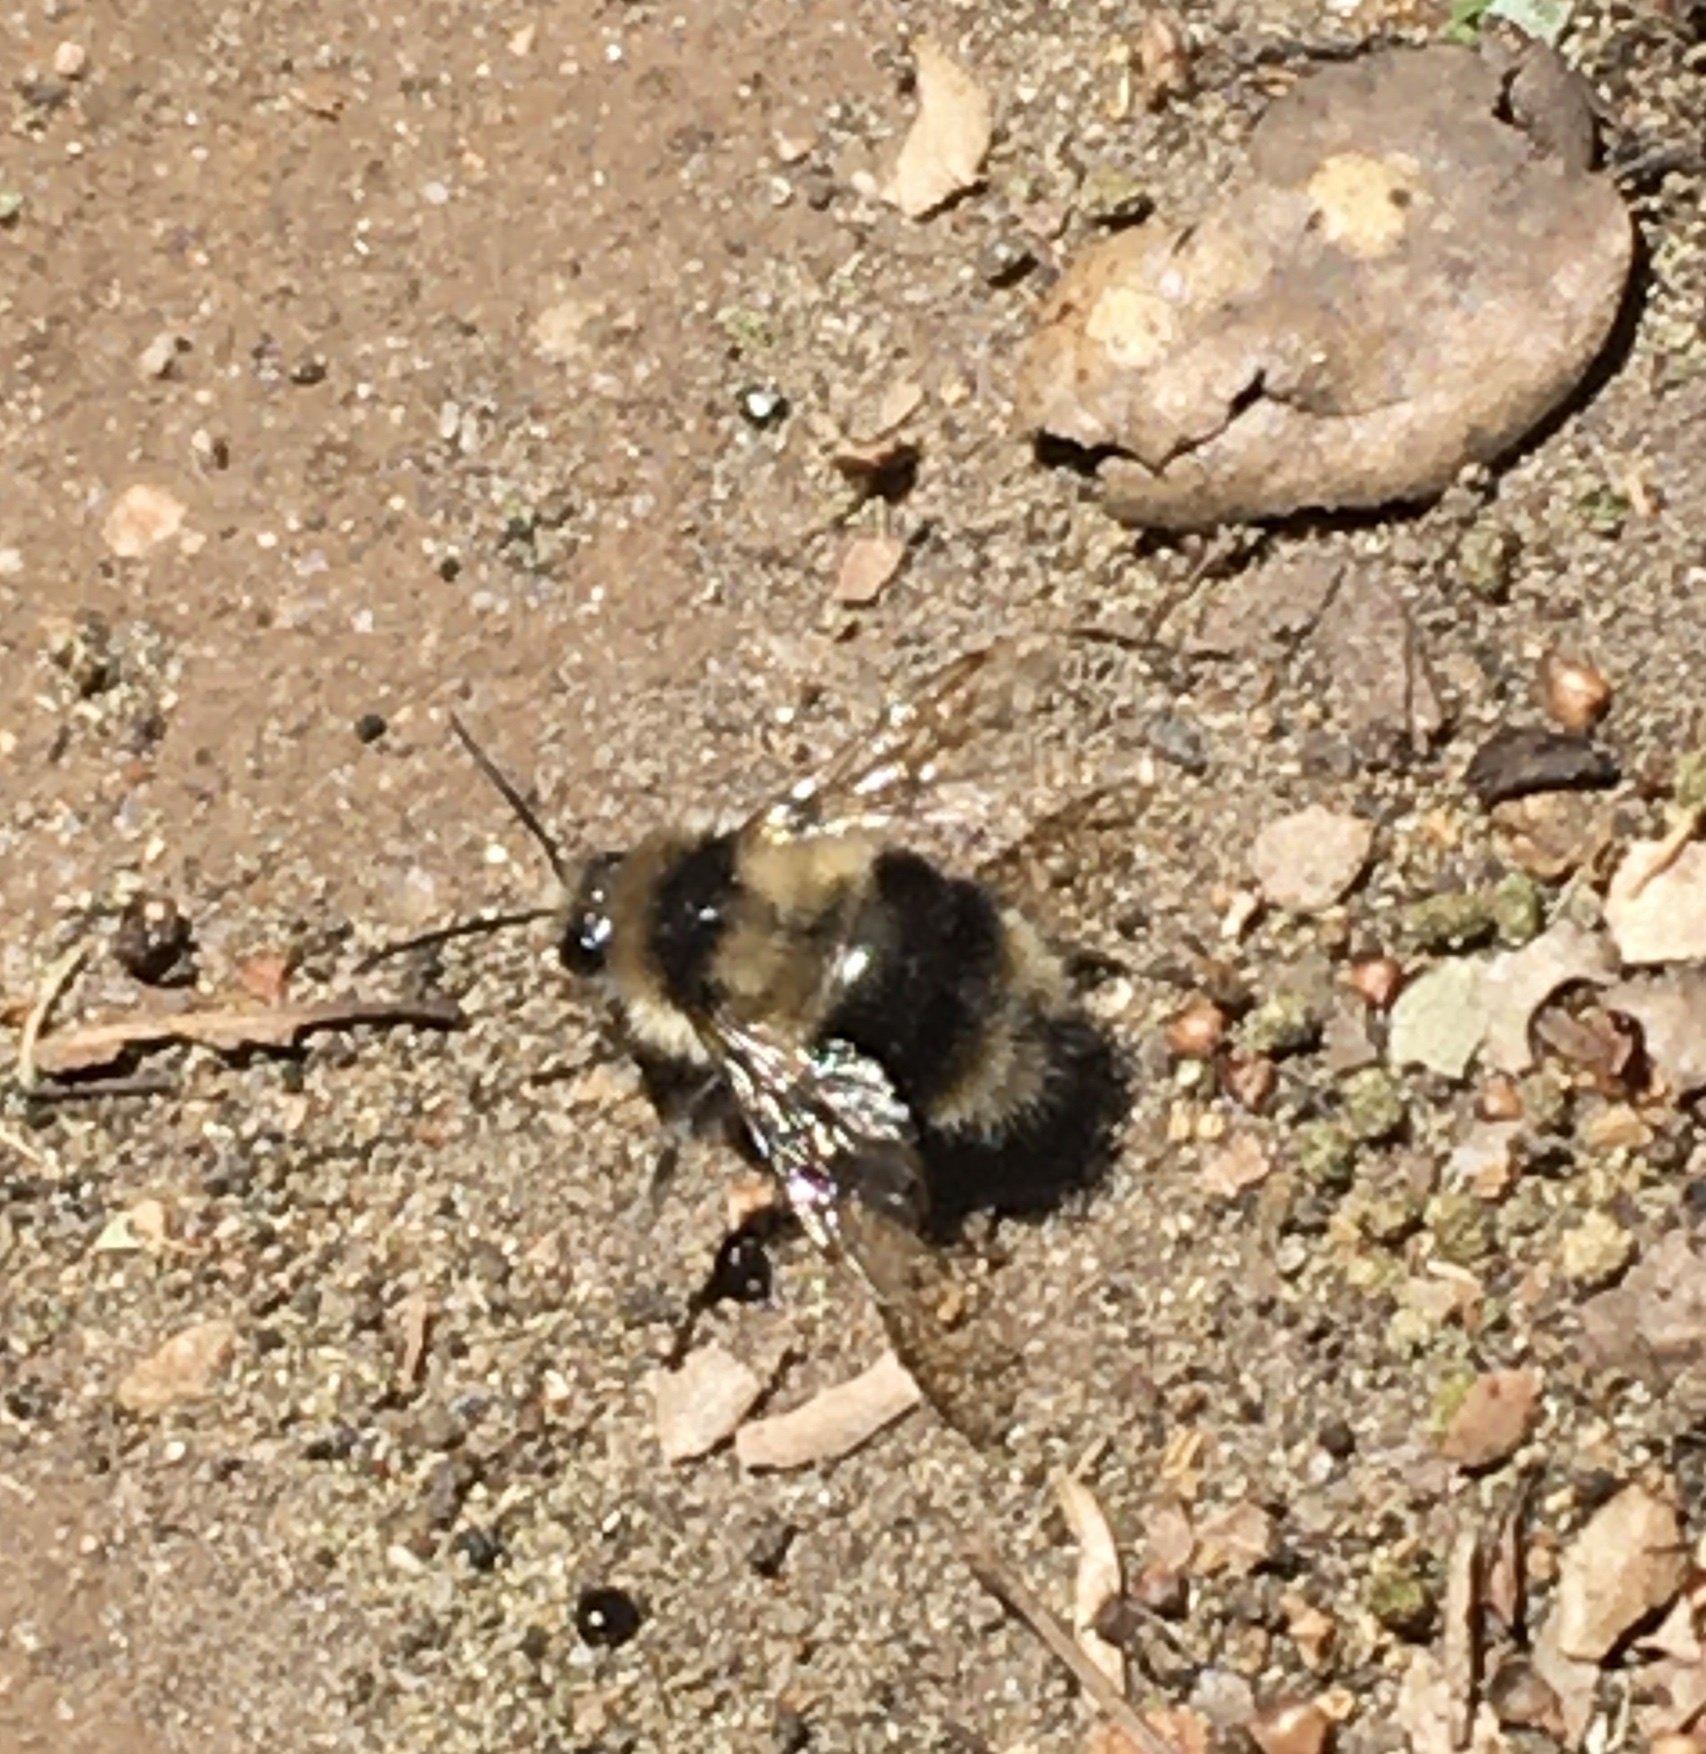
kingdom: Animalia
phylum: Arthropoda
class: Insecta
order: Hymenoptera
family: Apidae
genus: Bombus
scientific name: Bombus melanopygus
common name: Black tail bumble bee
